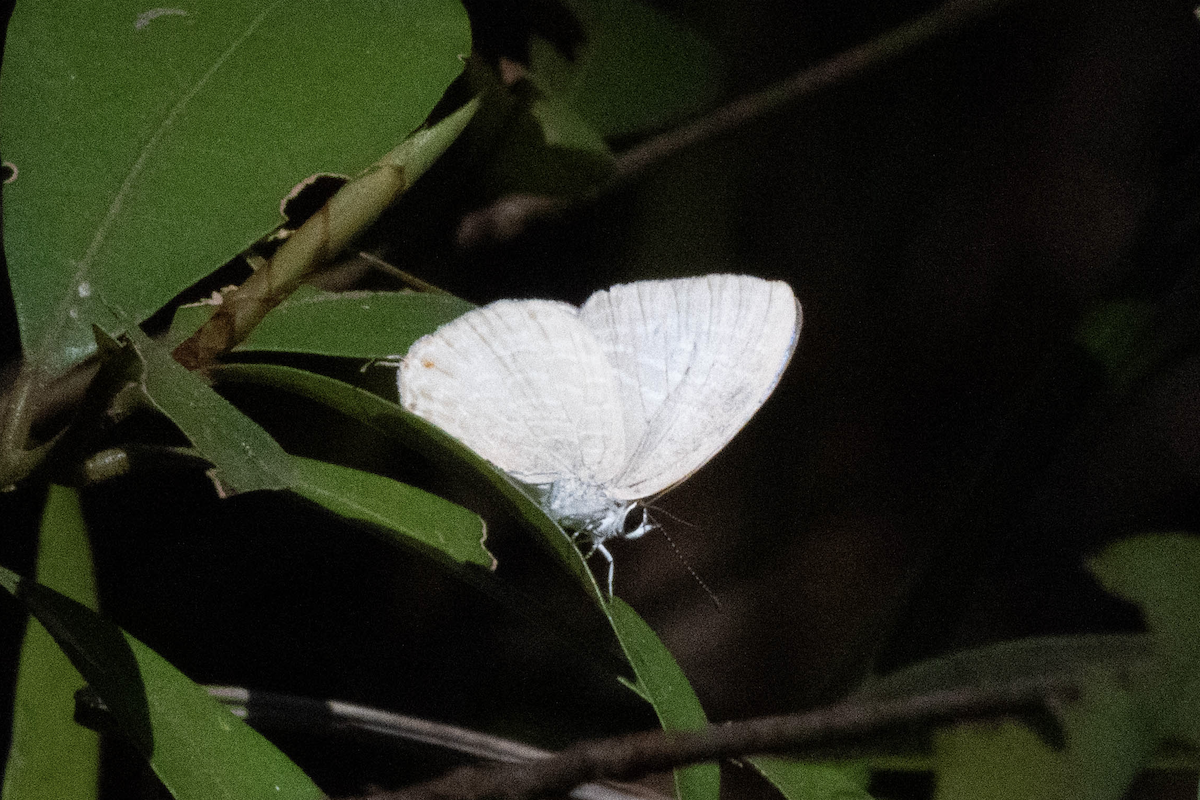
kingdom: Animalia
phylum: Arthropoda
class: Insecta
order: Lepidoptera
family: Lycaenidae
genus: Jamides
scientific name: Jamides alecto
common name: Metallic cerulean
